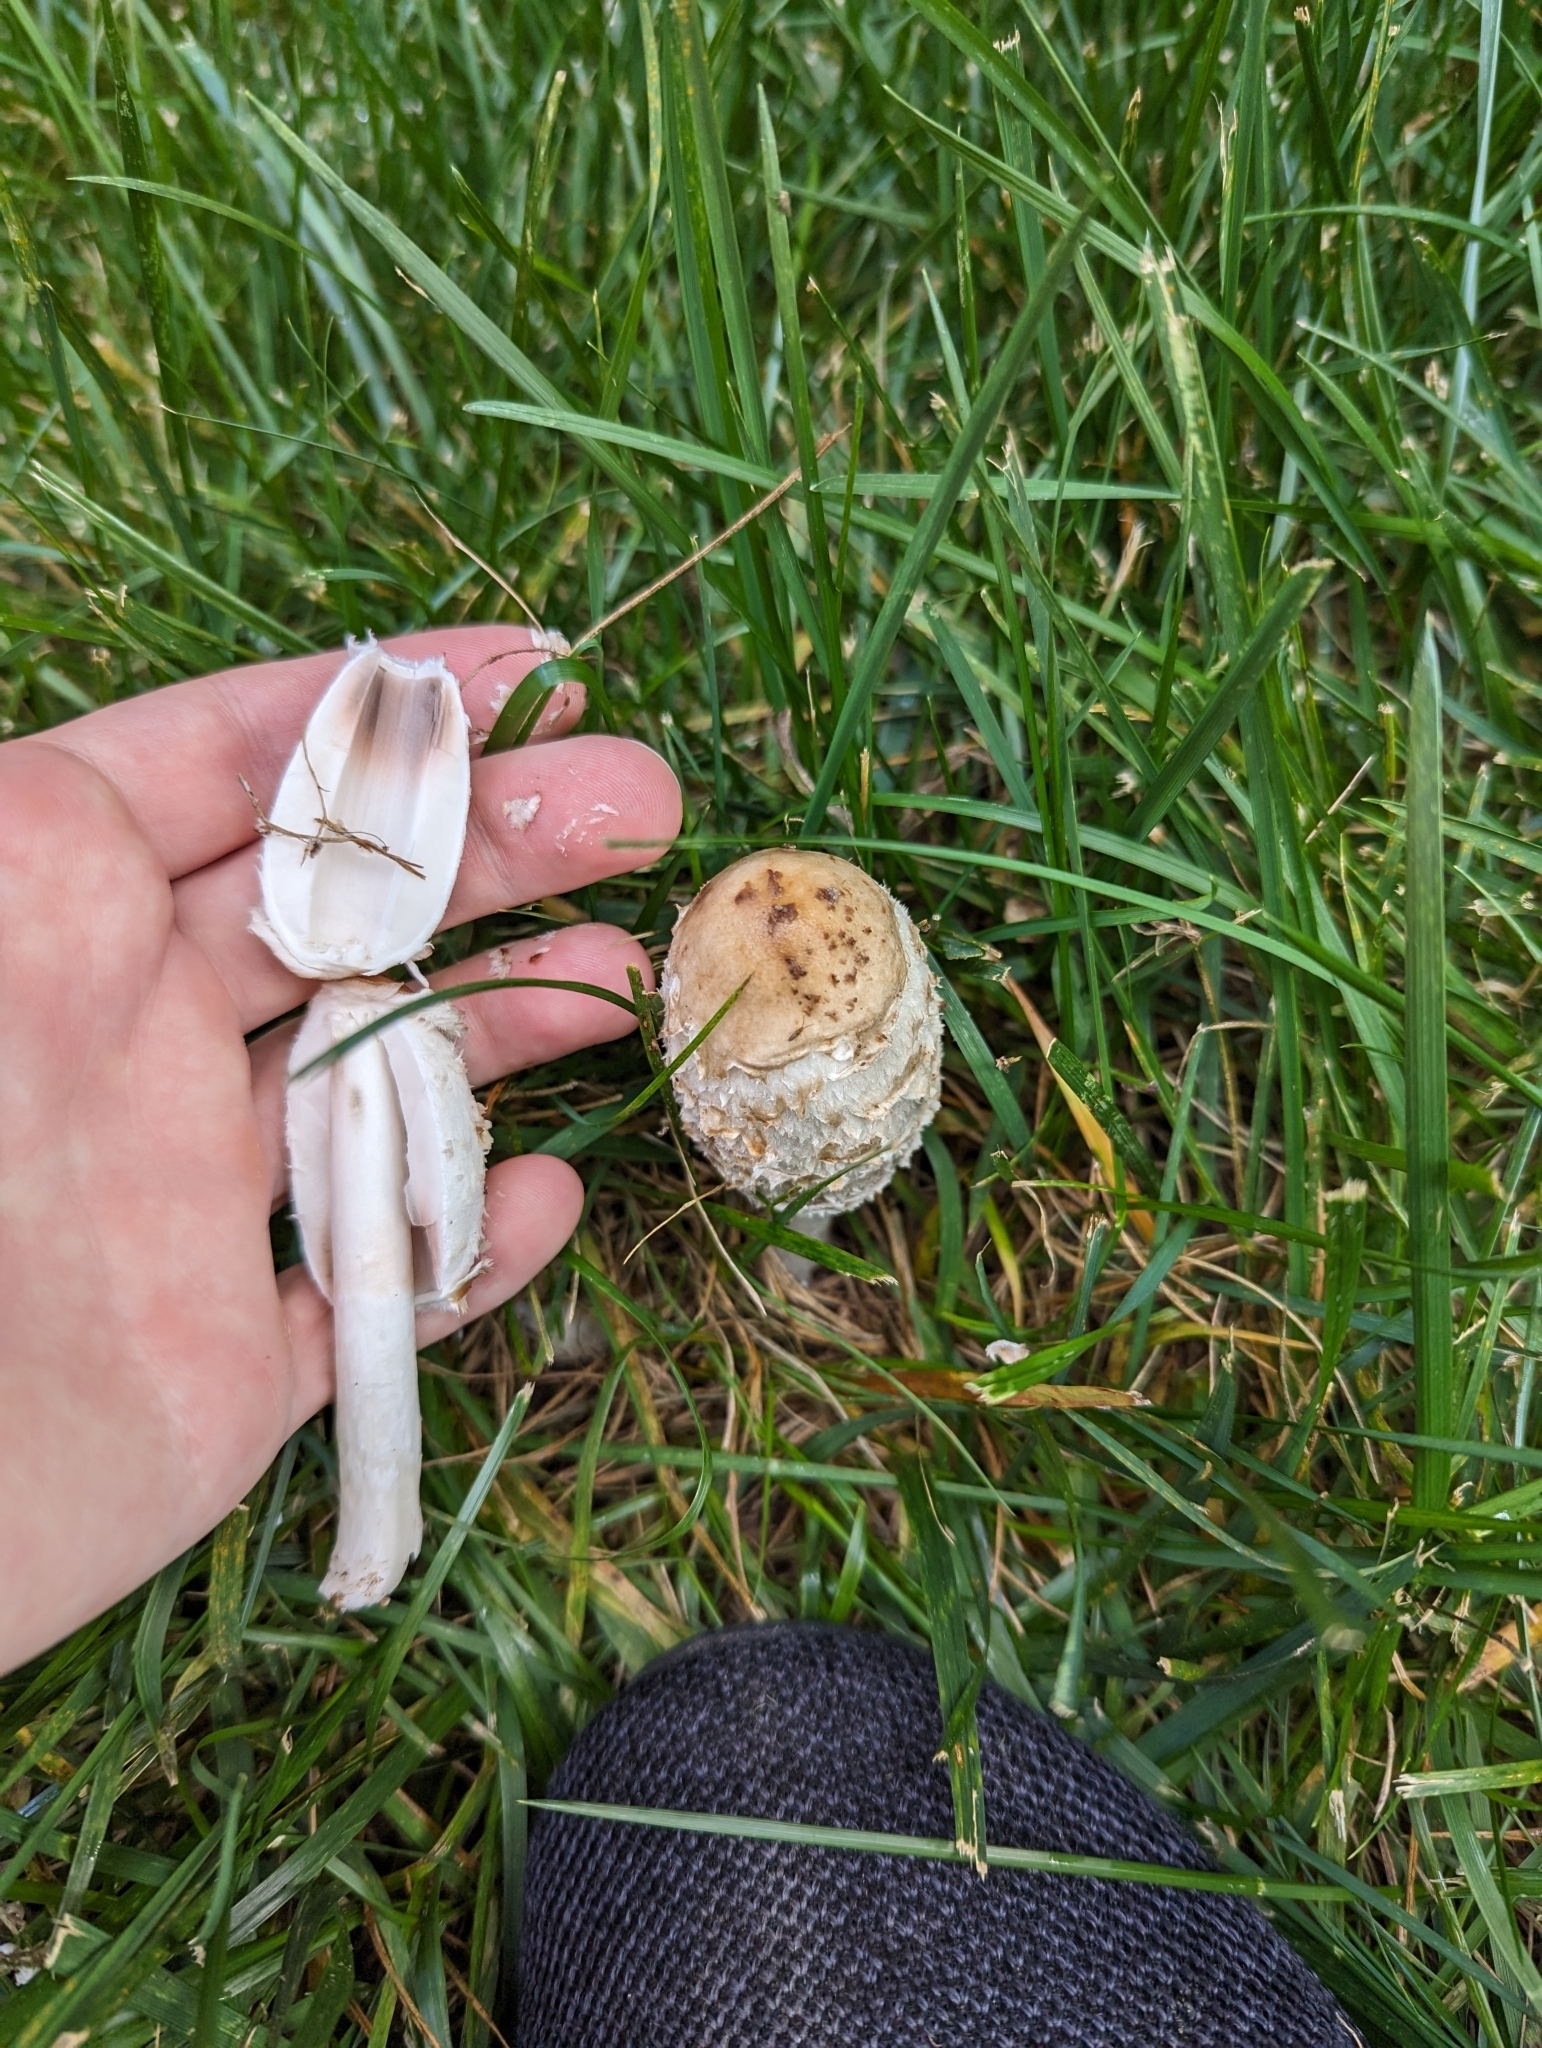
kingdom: Fungi
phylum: Basidiomycota
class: Agaricomycetes
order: Agaricales
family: Agaricaceae
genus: Coprinus
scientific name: Coprinus comatus
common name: Lawyer's wig
